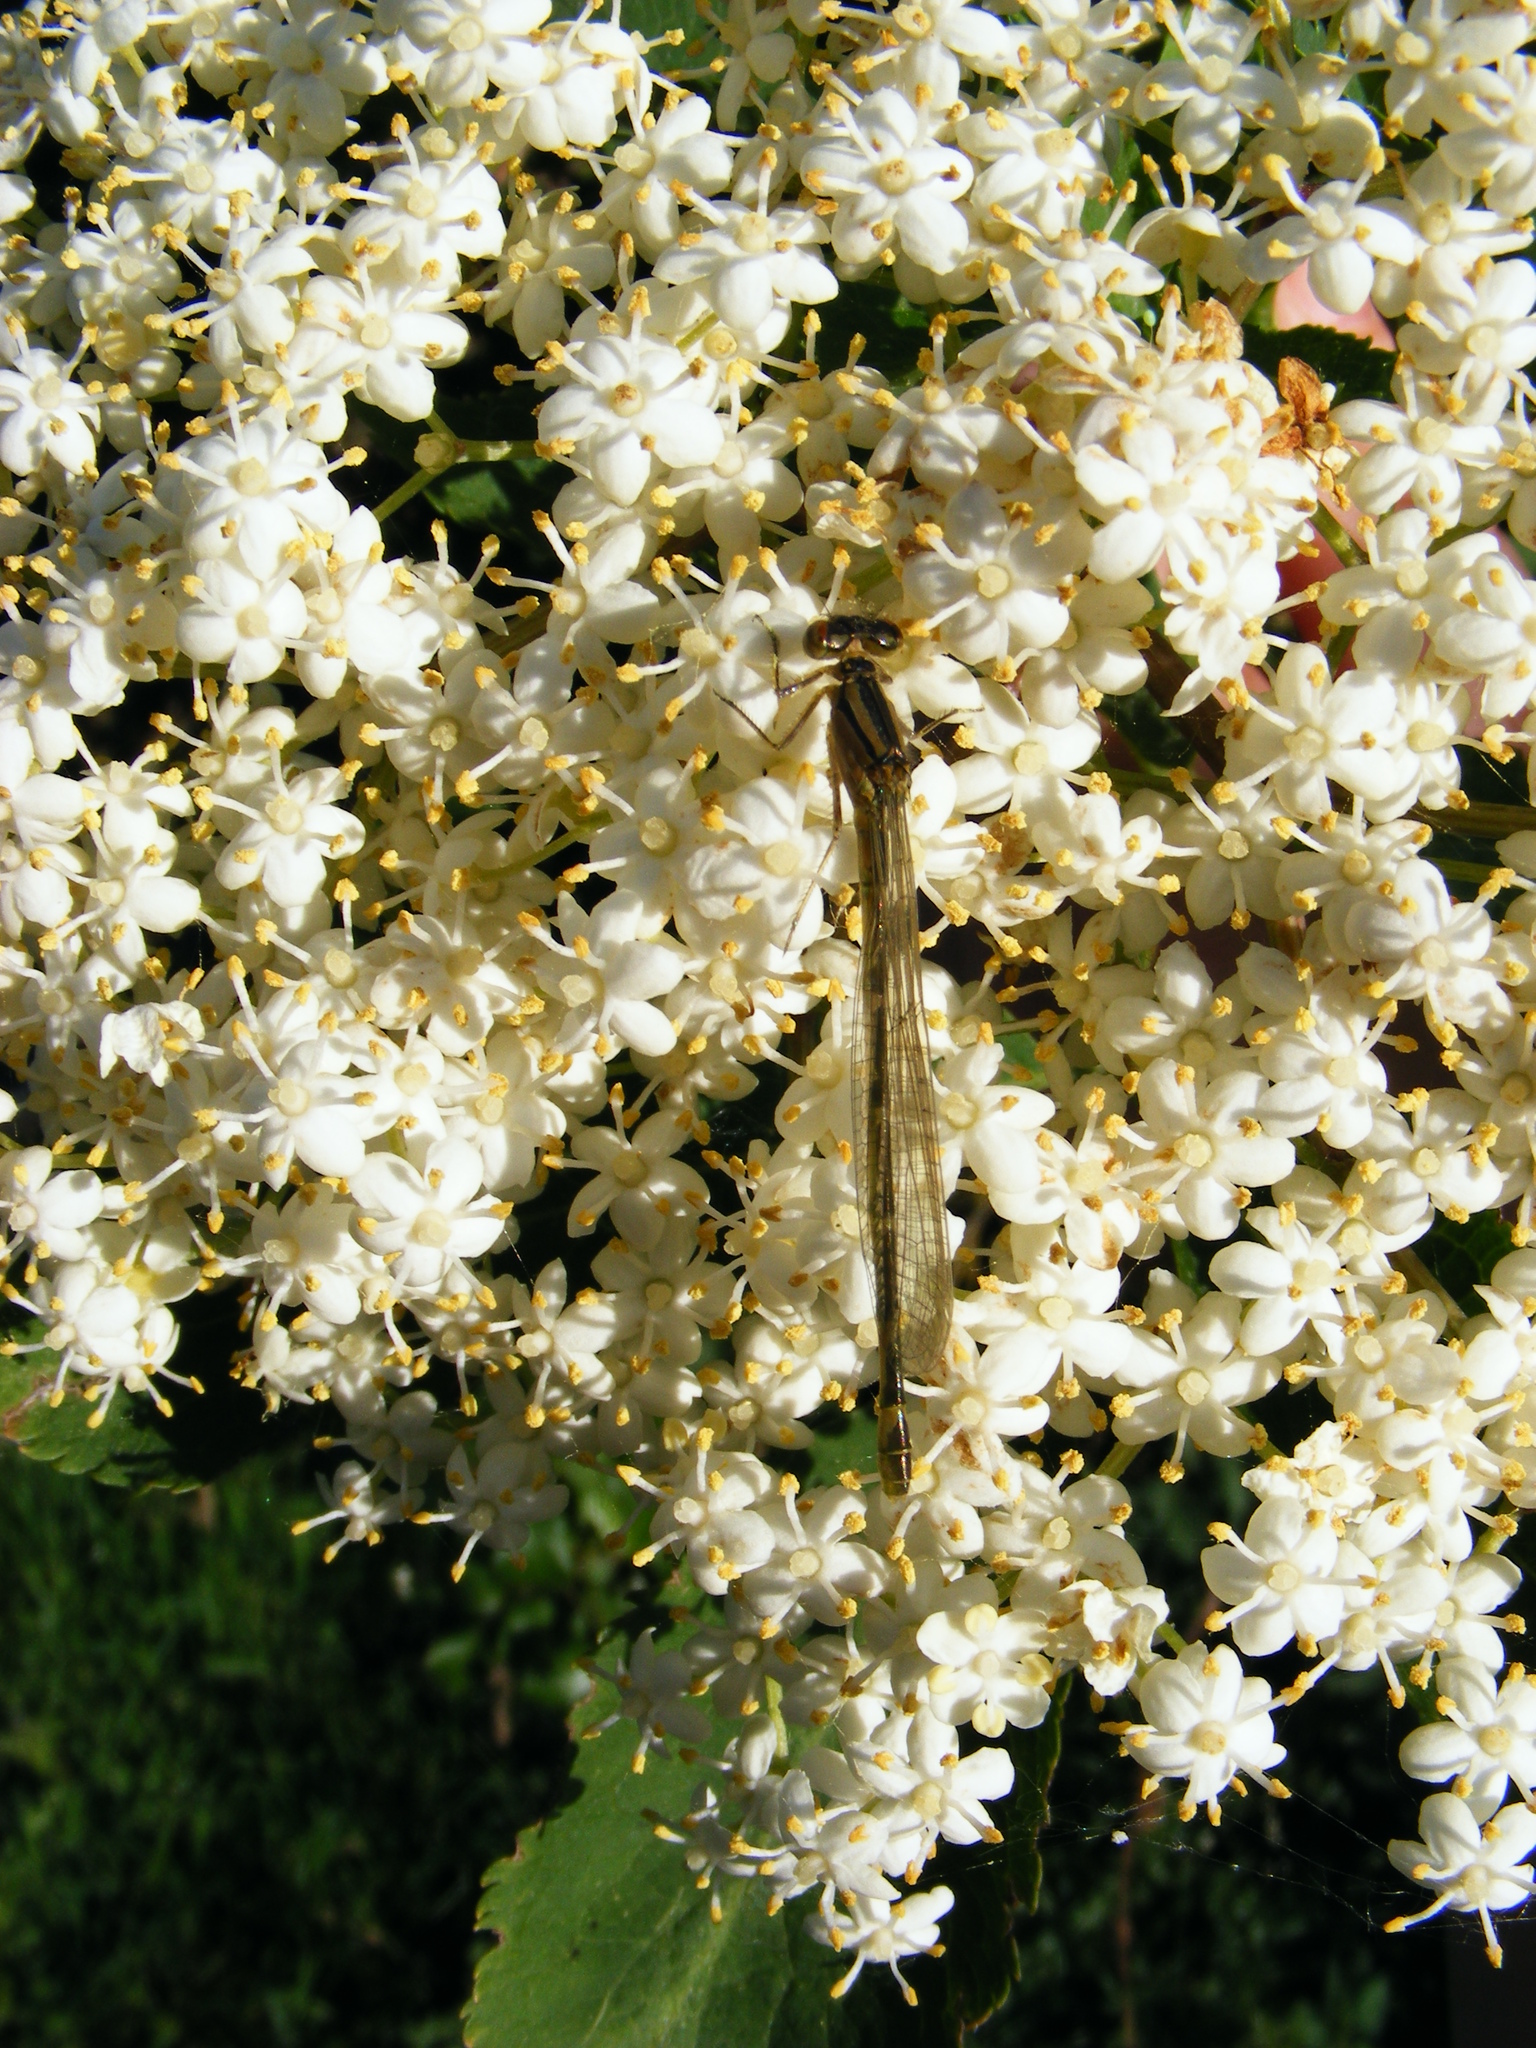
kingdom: Animalia
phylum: Arthropoda
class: Insecta
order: Odonata
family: Coenagrionidae
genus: Enallagma
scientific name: Enallagma cyathigerum
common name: Common blue damselfly
